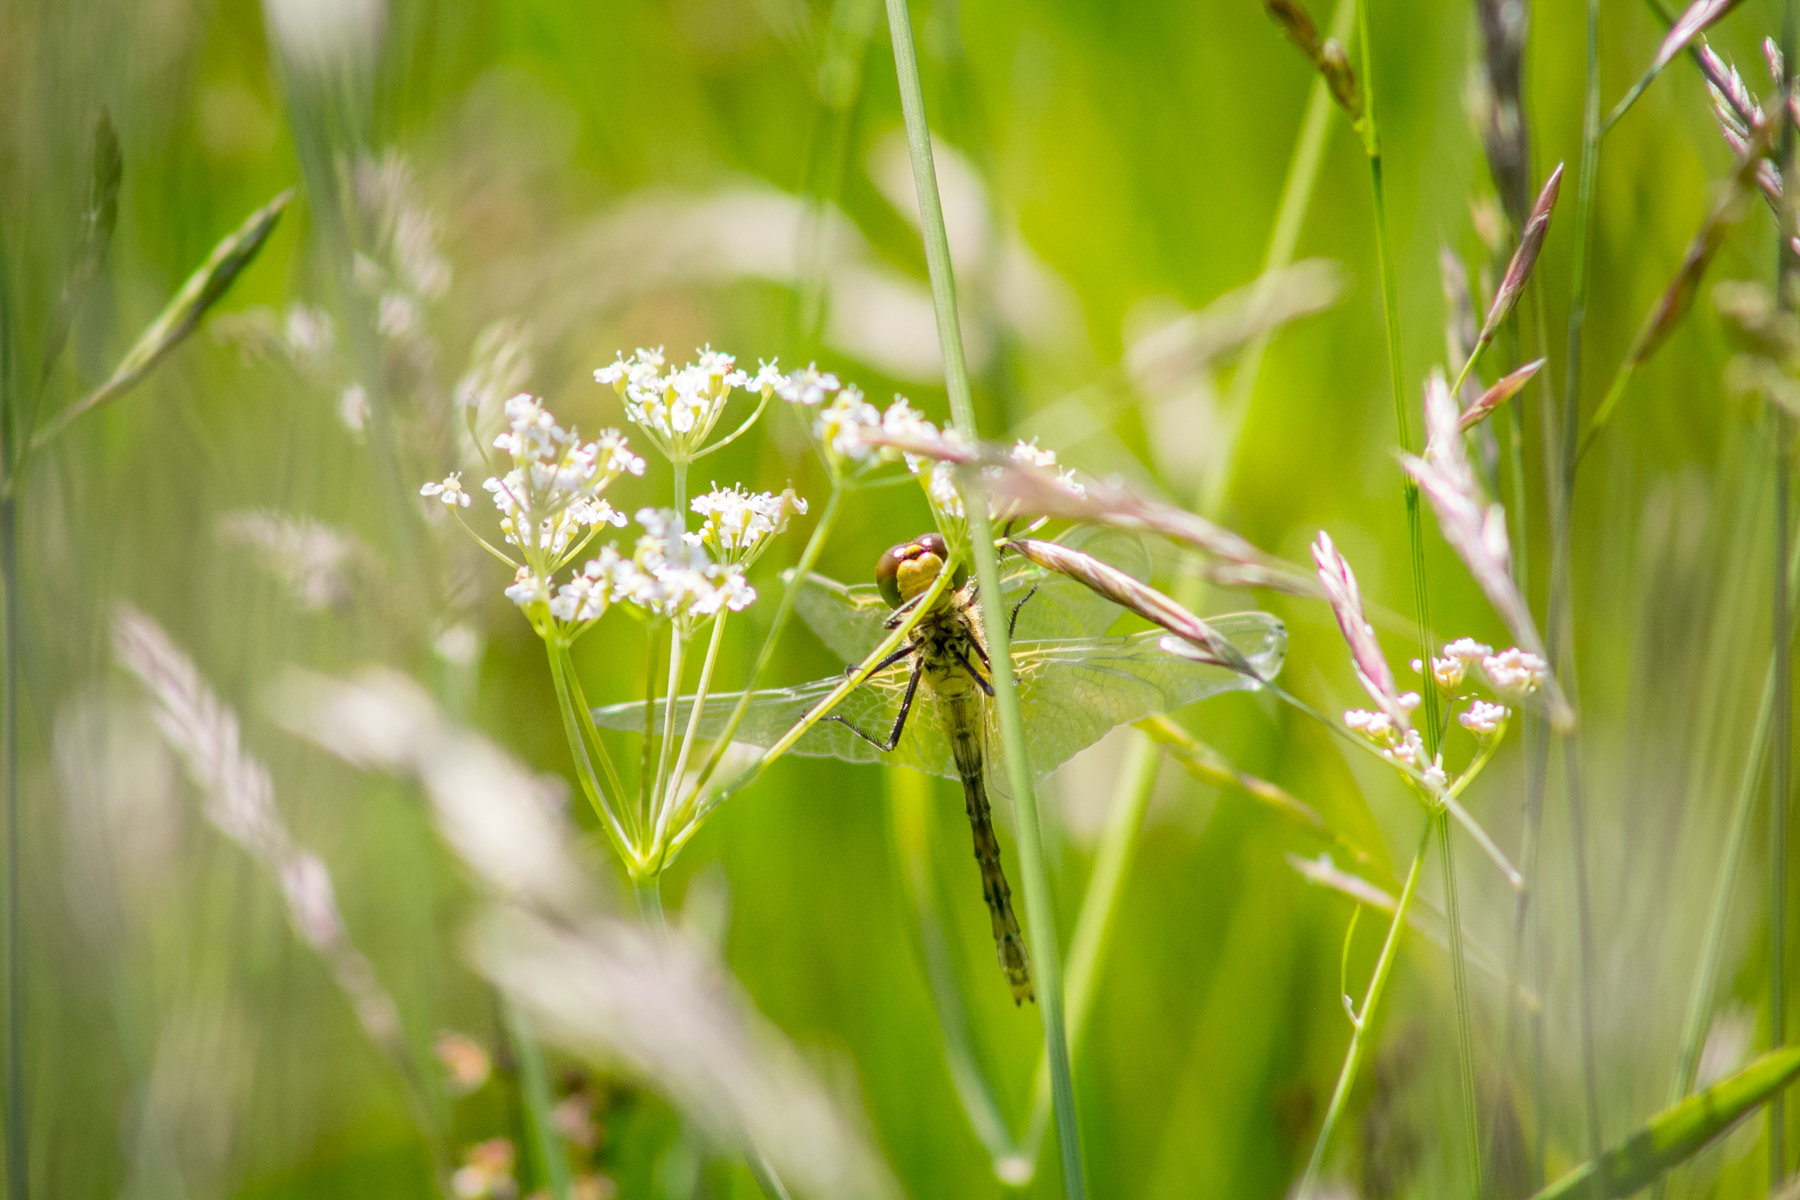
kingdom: Animalia
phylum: Arthropoda
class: Insecta
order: Odonata
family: Libellulidae
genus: Sympetrum
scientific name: Sympetrum flaveolum
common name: Yellow-winged darter
